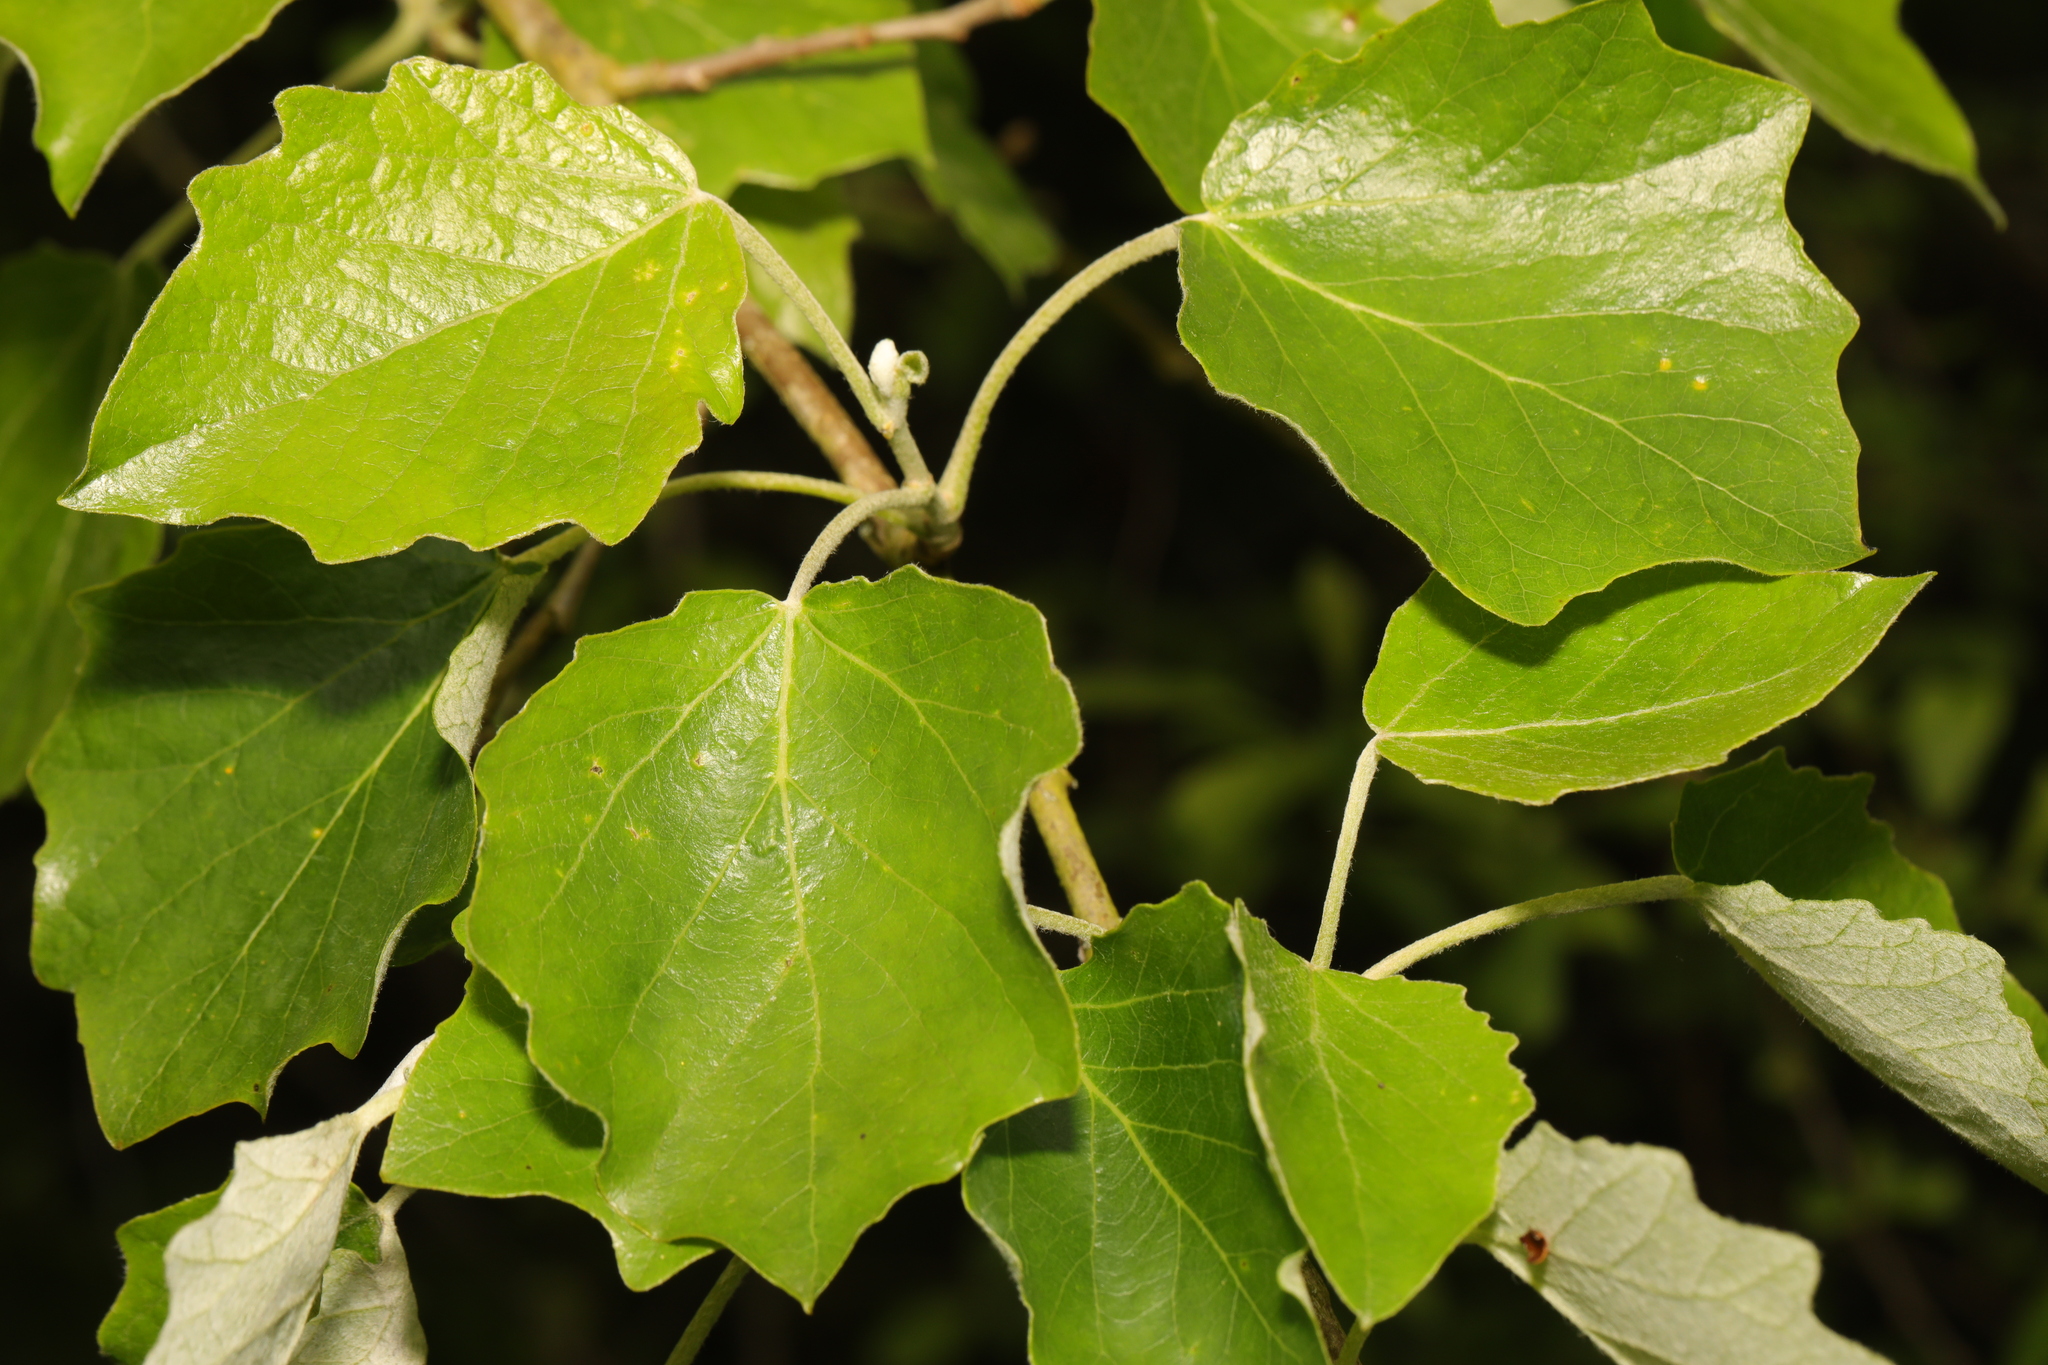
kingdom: Plantae
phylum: Tracheophyta
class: Magnoliopsida
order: Malpighiales
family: Salicaceae
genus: Populus
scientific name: Populus canescens
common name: Gray poplar
